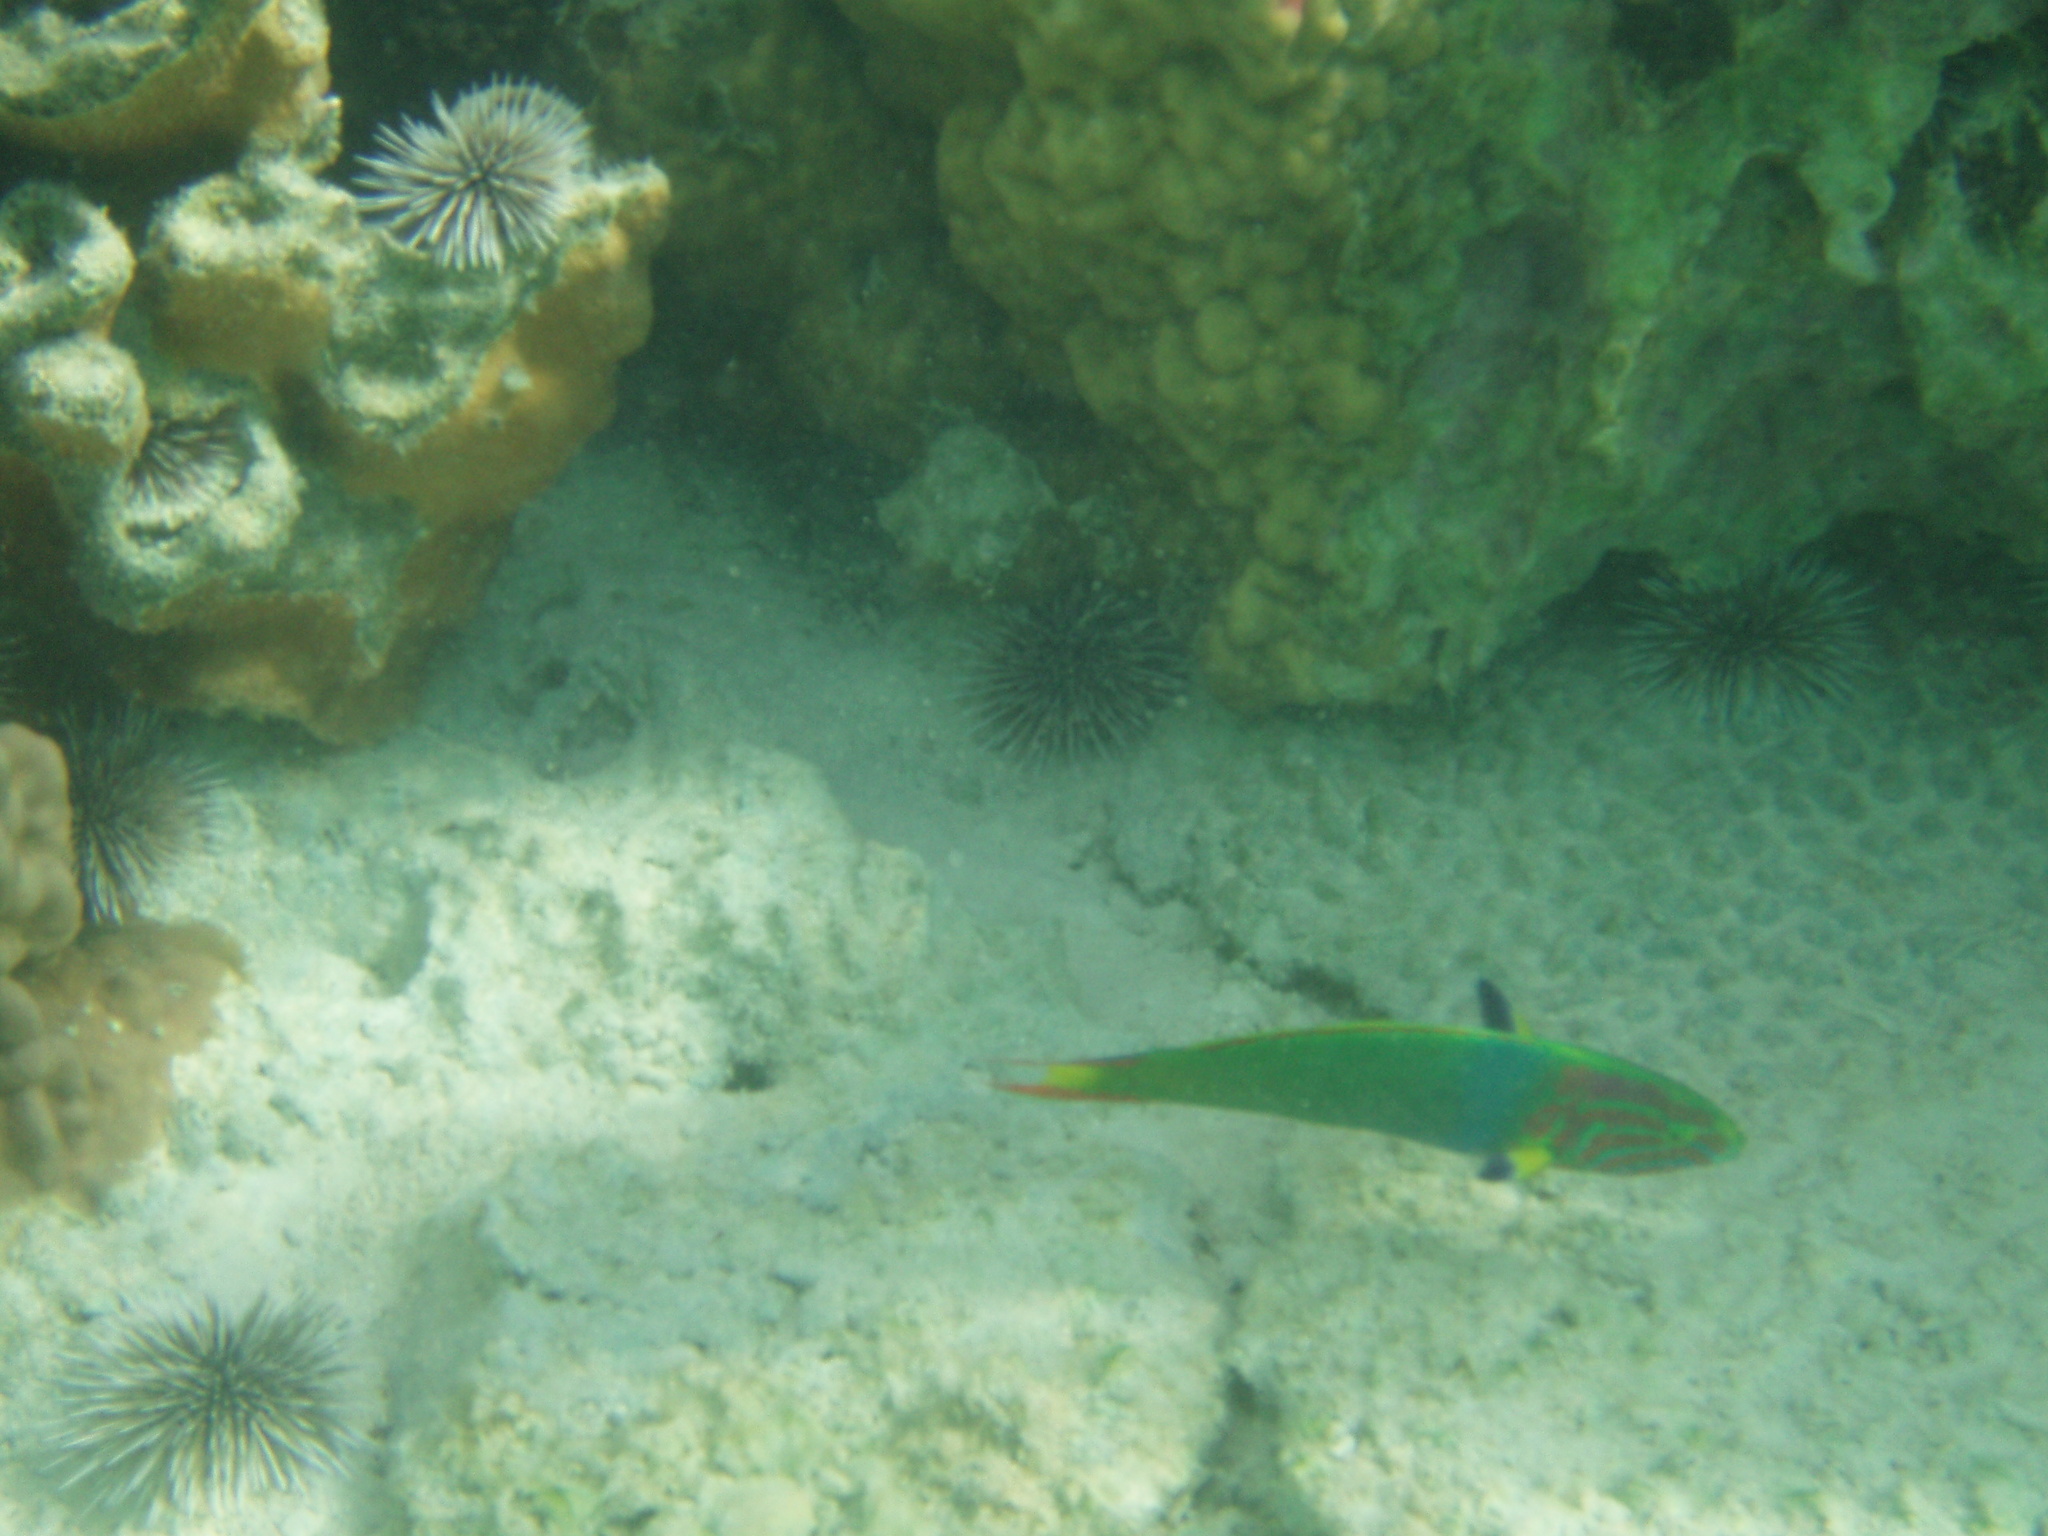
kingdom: Animalia
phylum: Chordata
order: Perciformes
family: Labridae
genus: Thalassoma
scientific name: Thalassoma lutescens
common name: Green moon wrasse
